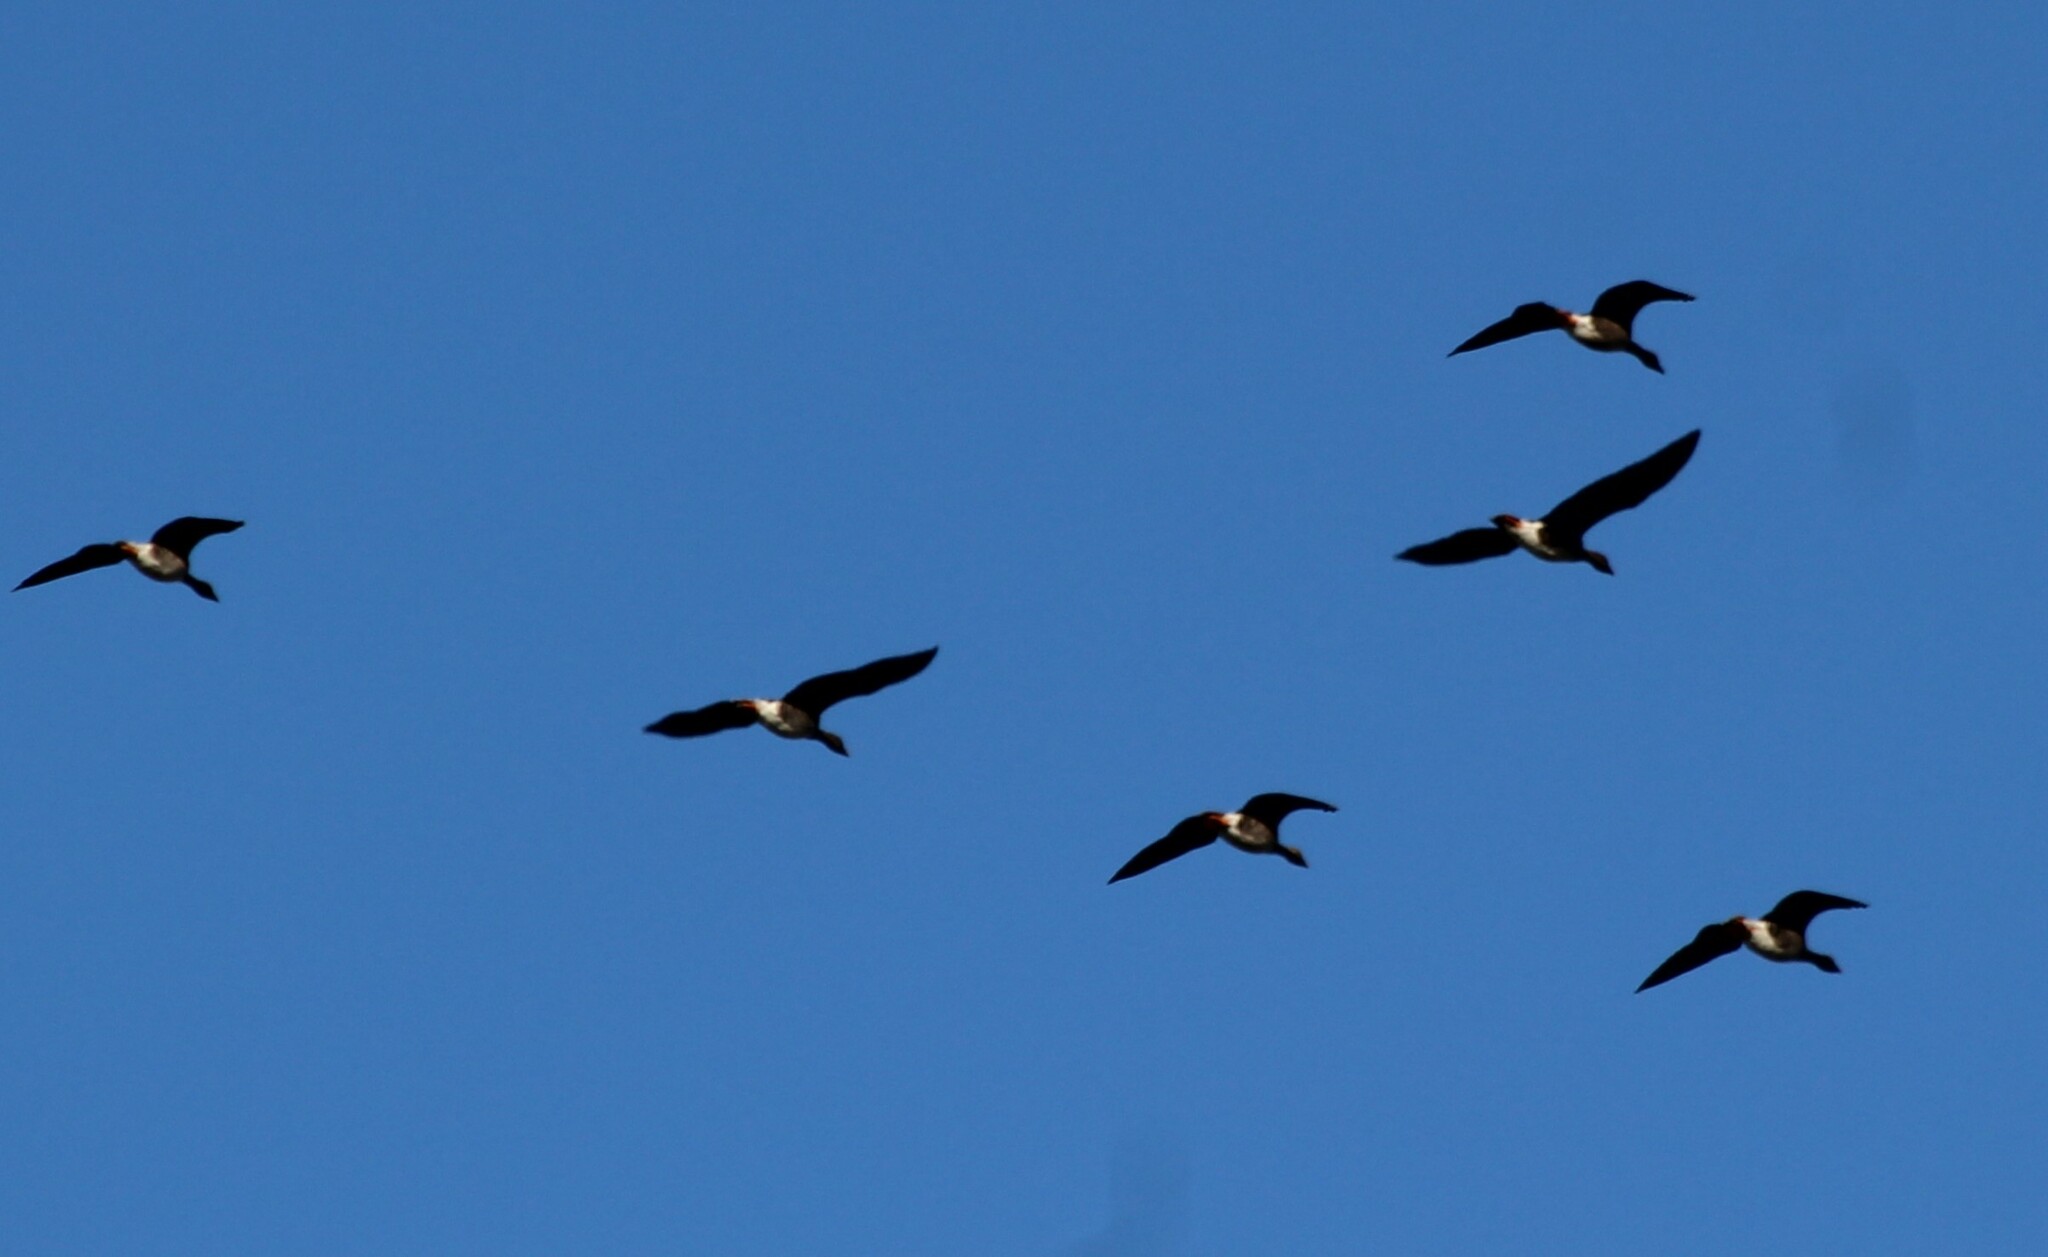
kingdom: Animalia
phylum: Chordata
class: Aves
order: Anseriformes
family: Anatidae
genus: Anser
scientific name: Anser anser
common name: Greylag goose
